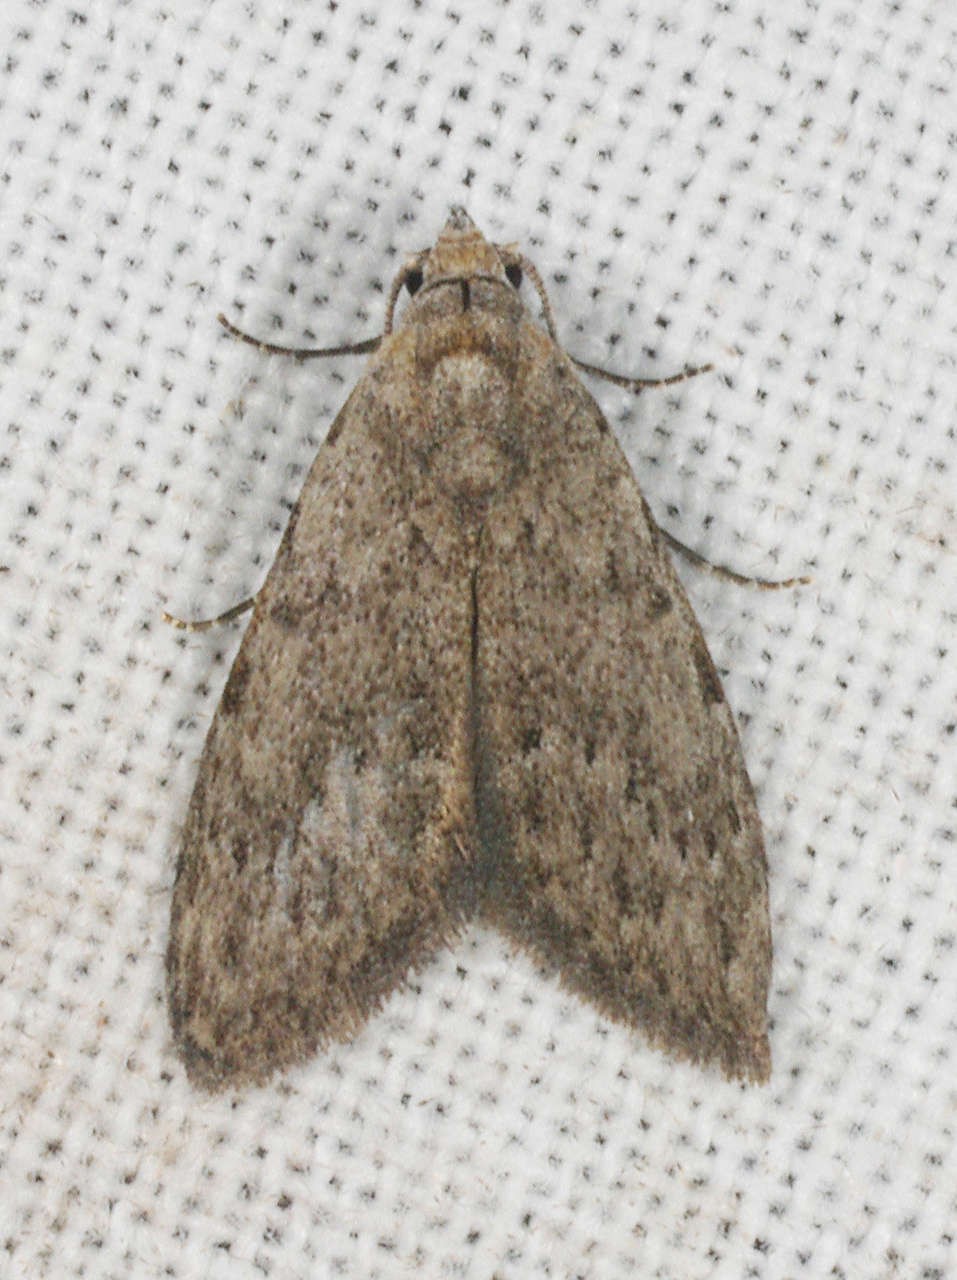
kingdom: Animalia
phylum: Arthropoda
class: Insecta
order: Lepidoptera
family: Nolidae
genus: Nola
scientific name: Nola pleurosema
